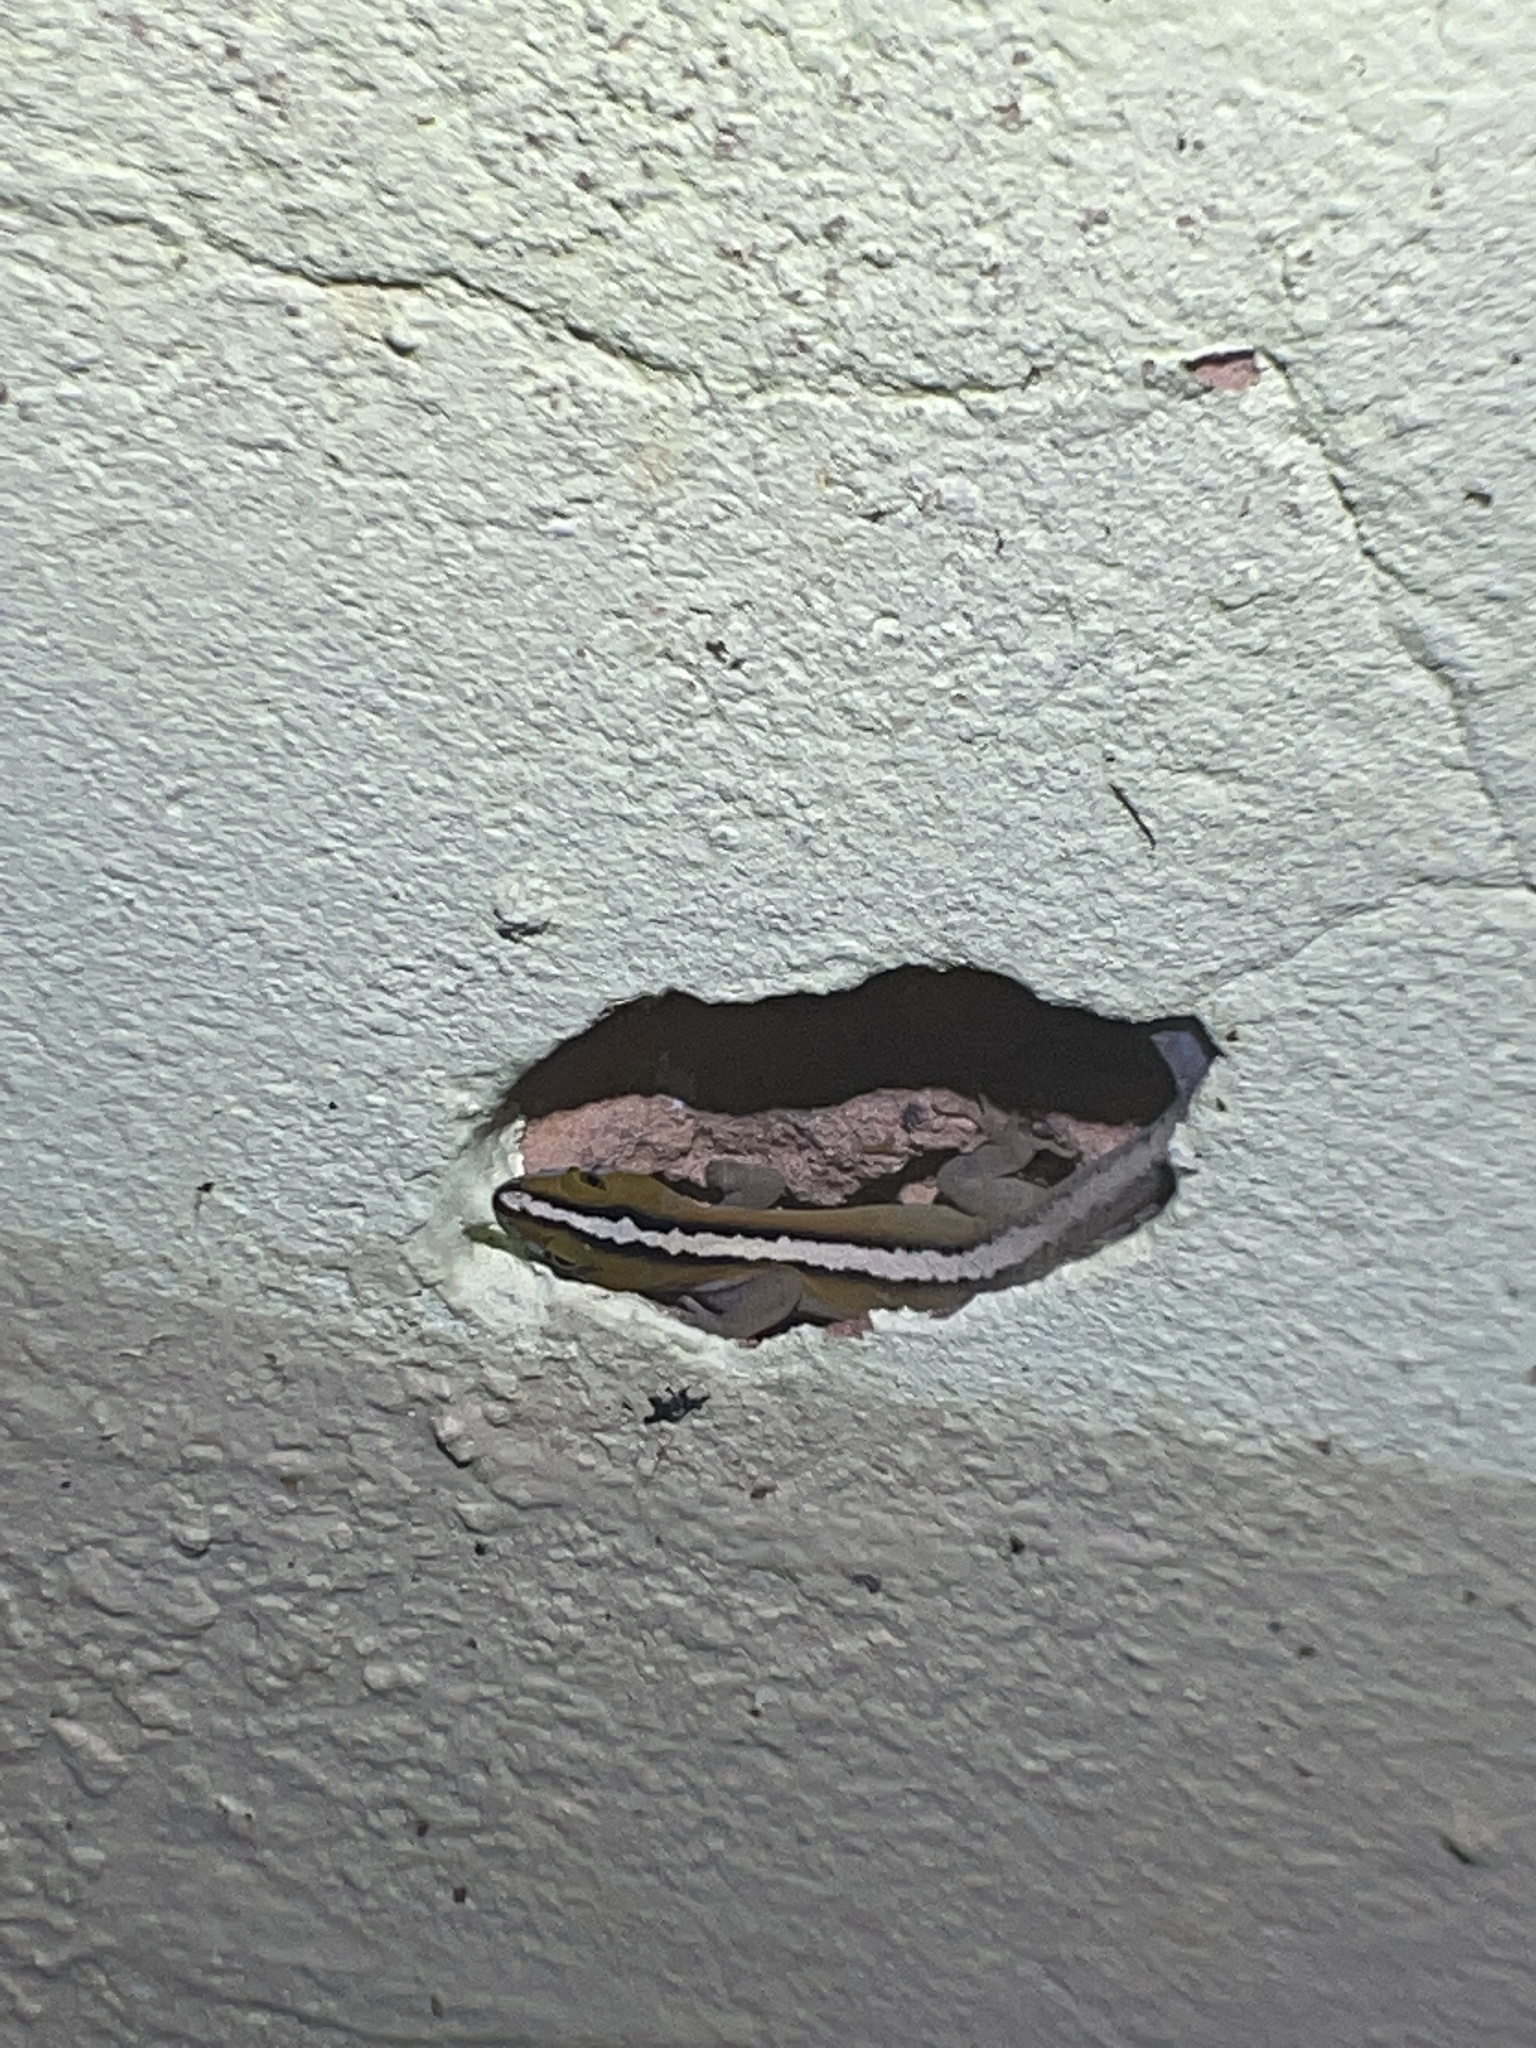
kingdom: Animalia
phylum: Chordata
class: Squamata
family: Sphaerodactylidae
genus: Gonatodes
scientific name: Gonatodes vittatus
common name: Wiegmann's striped gecko
